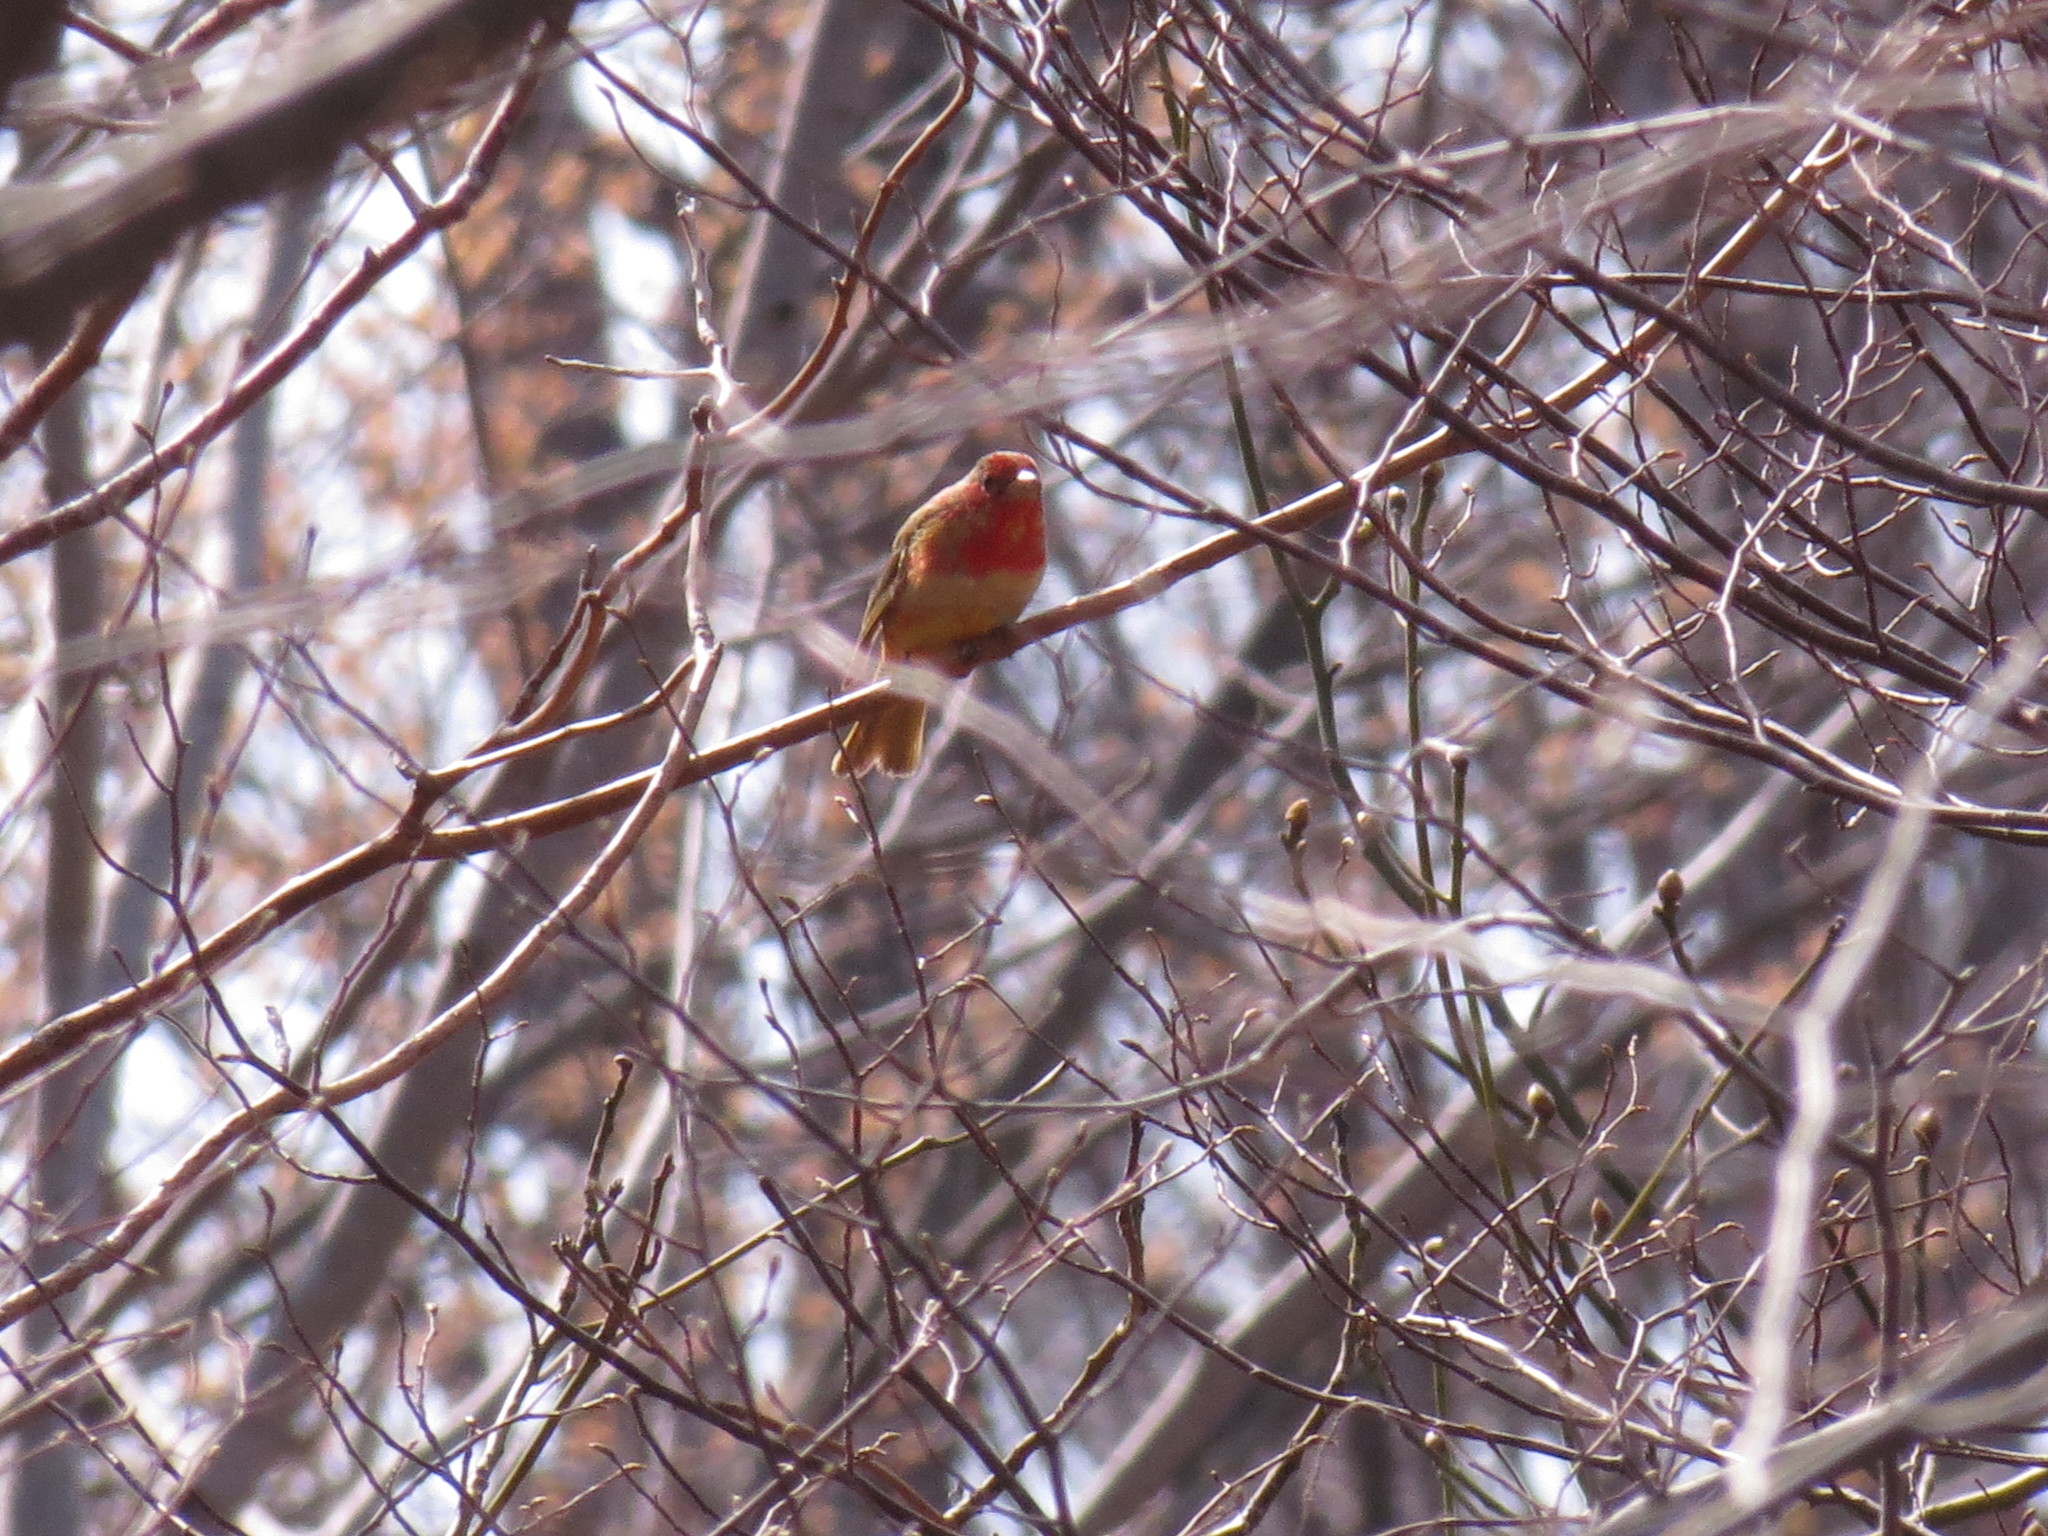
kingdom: Animalia
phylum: Chordata
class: Aves
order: Passeriformes
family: Cardinalidae
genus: Piranga
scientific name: Piranga rubra
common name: Summer tanager
